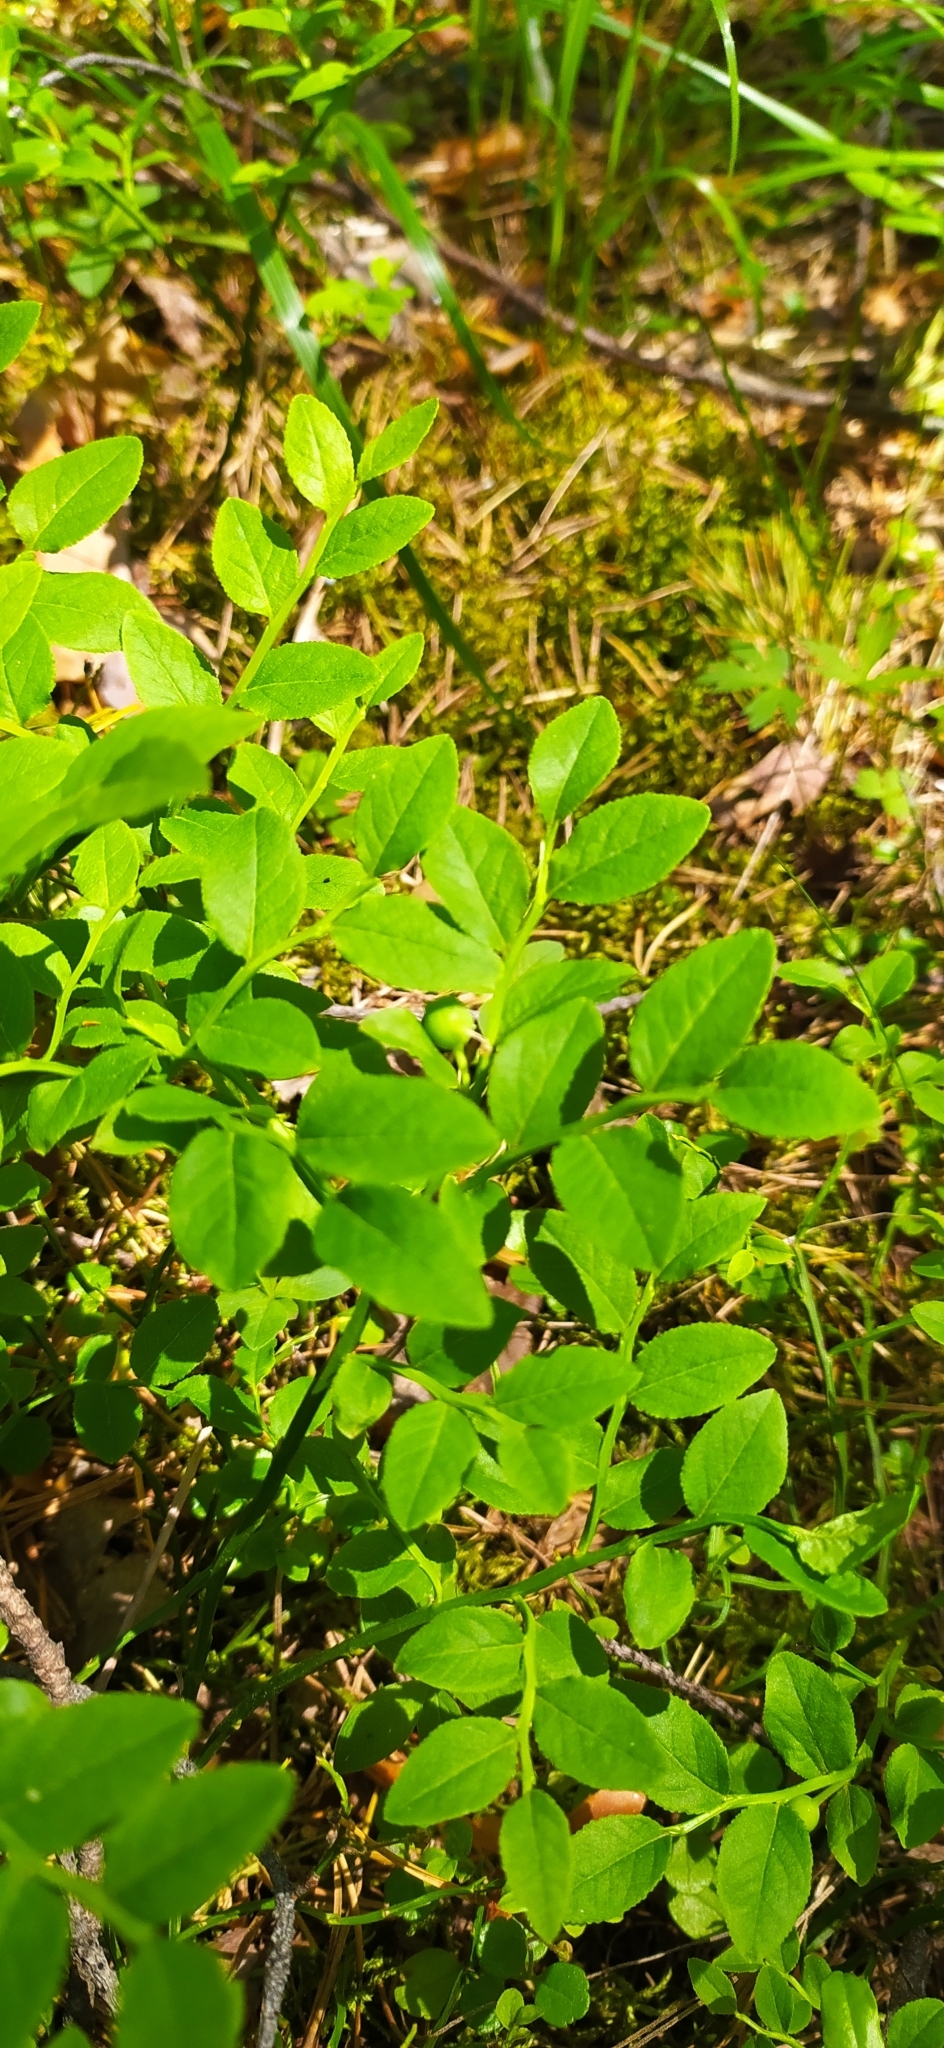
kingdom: Plantae
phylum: Tracheophyta
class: Magnoliopsida
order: Ericales
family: Ericaceae
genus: Vaccinium
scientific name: Vaccinium myrtillus
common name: Bilberry
